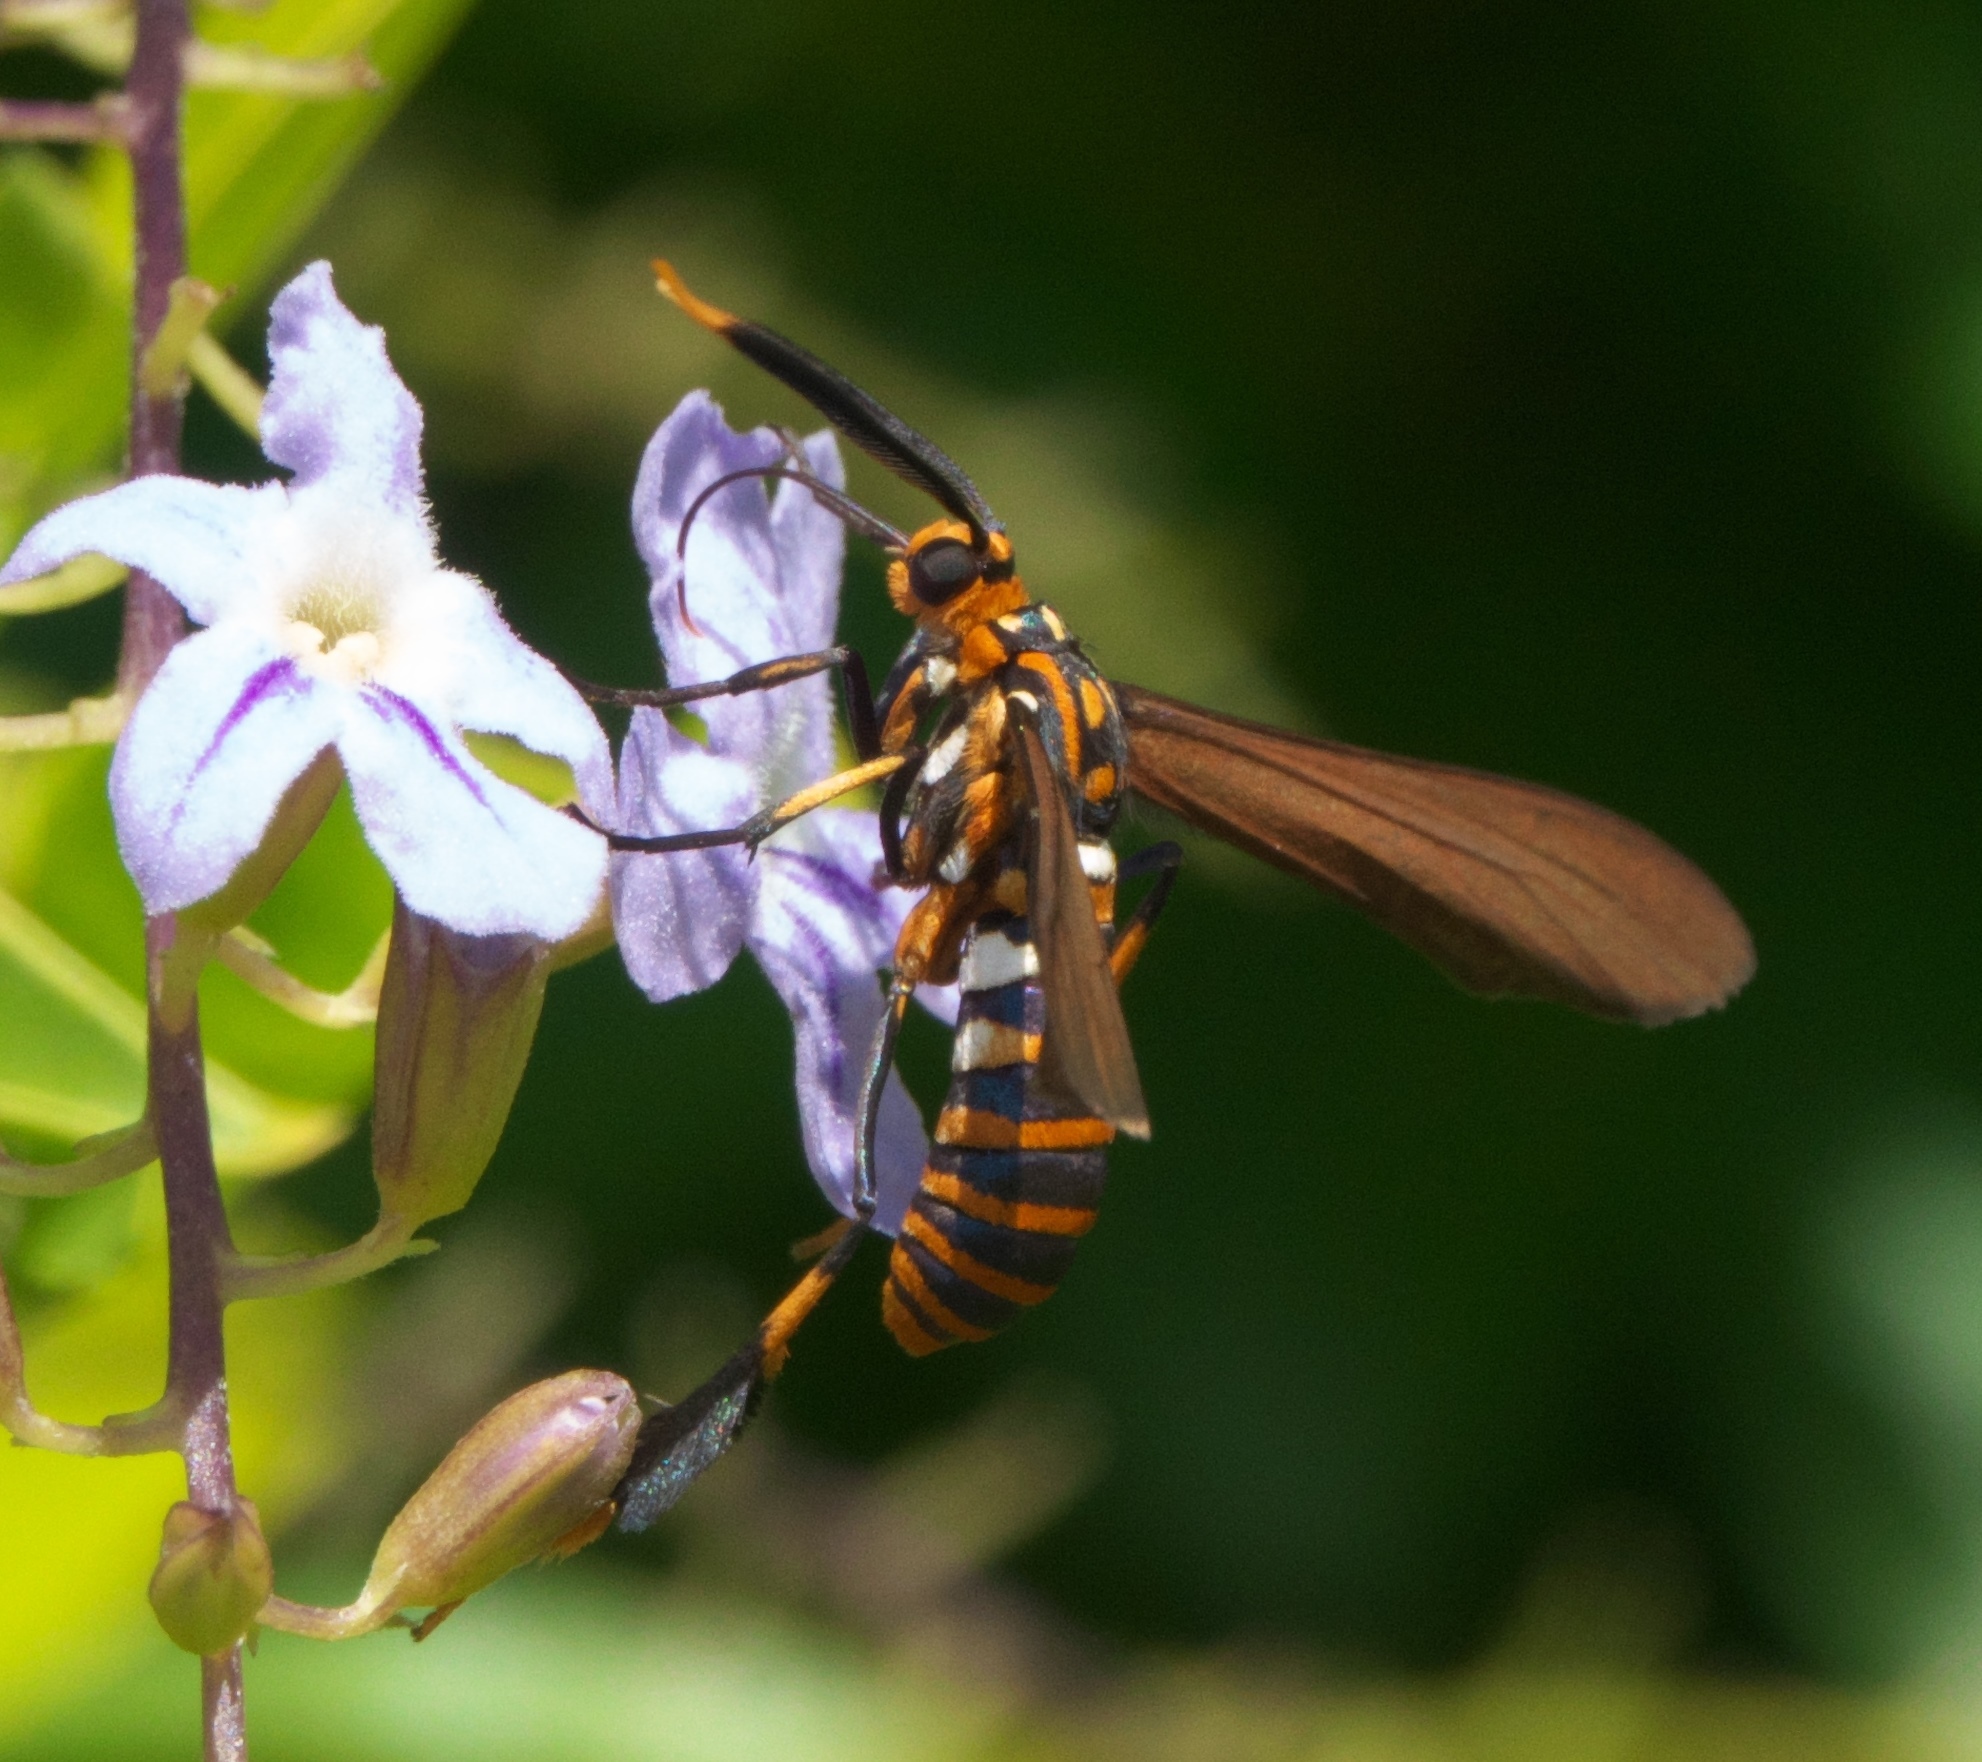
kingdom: Animalia
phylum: Arthropoda
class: Insecta
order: Lepidoptera
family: Erebidae
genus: Horama
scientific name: Horama panthalon
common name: Texas wasp moth
